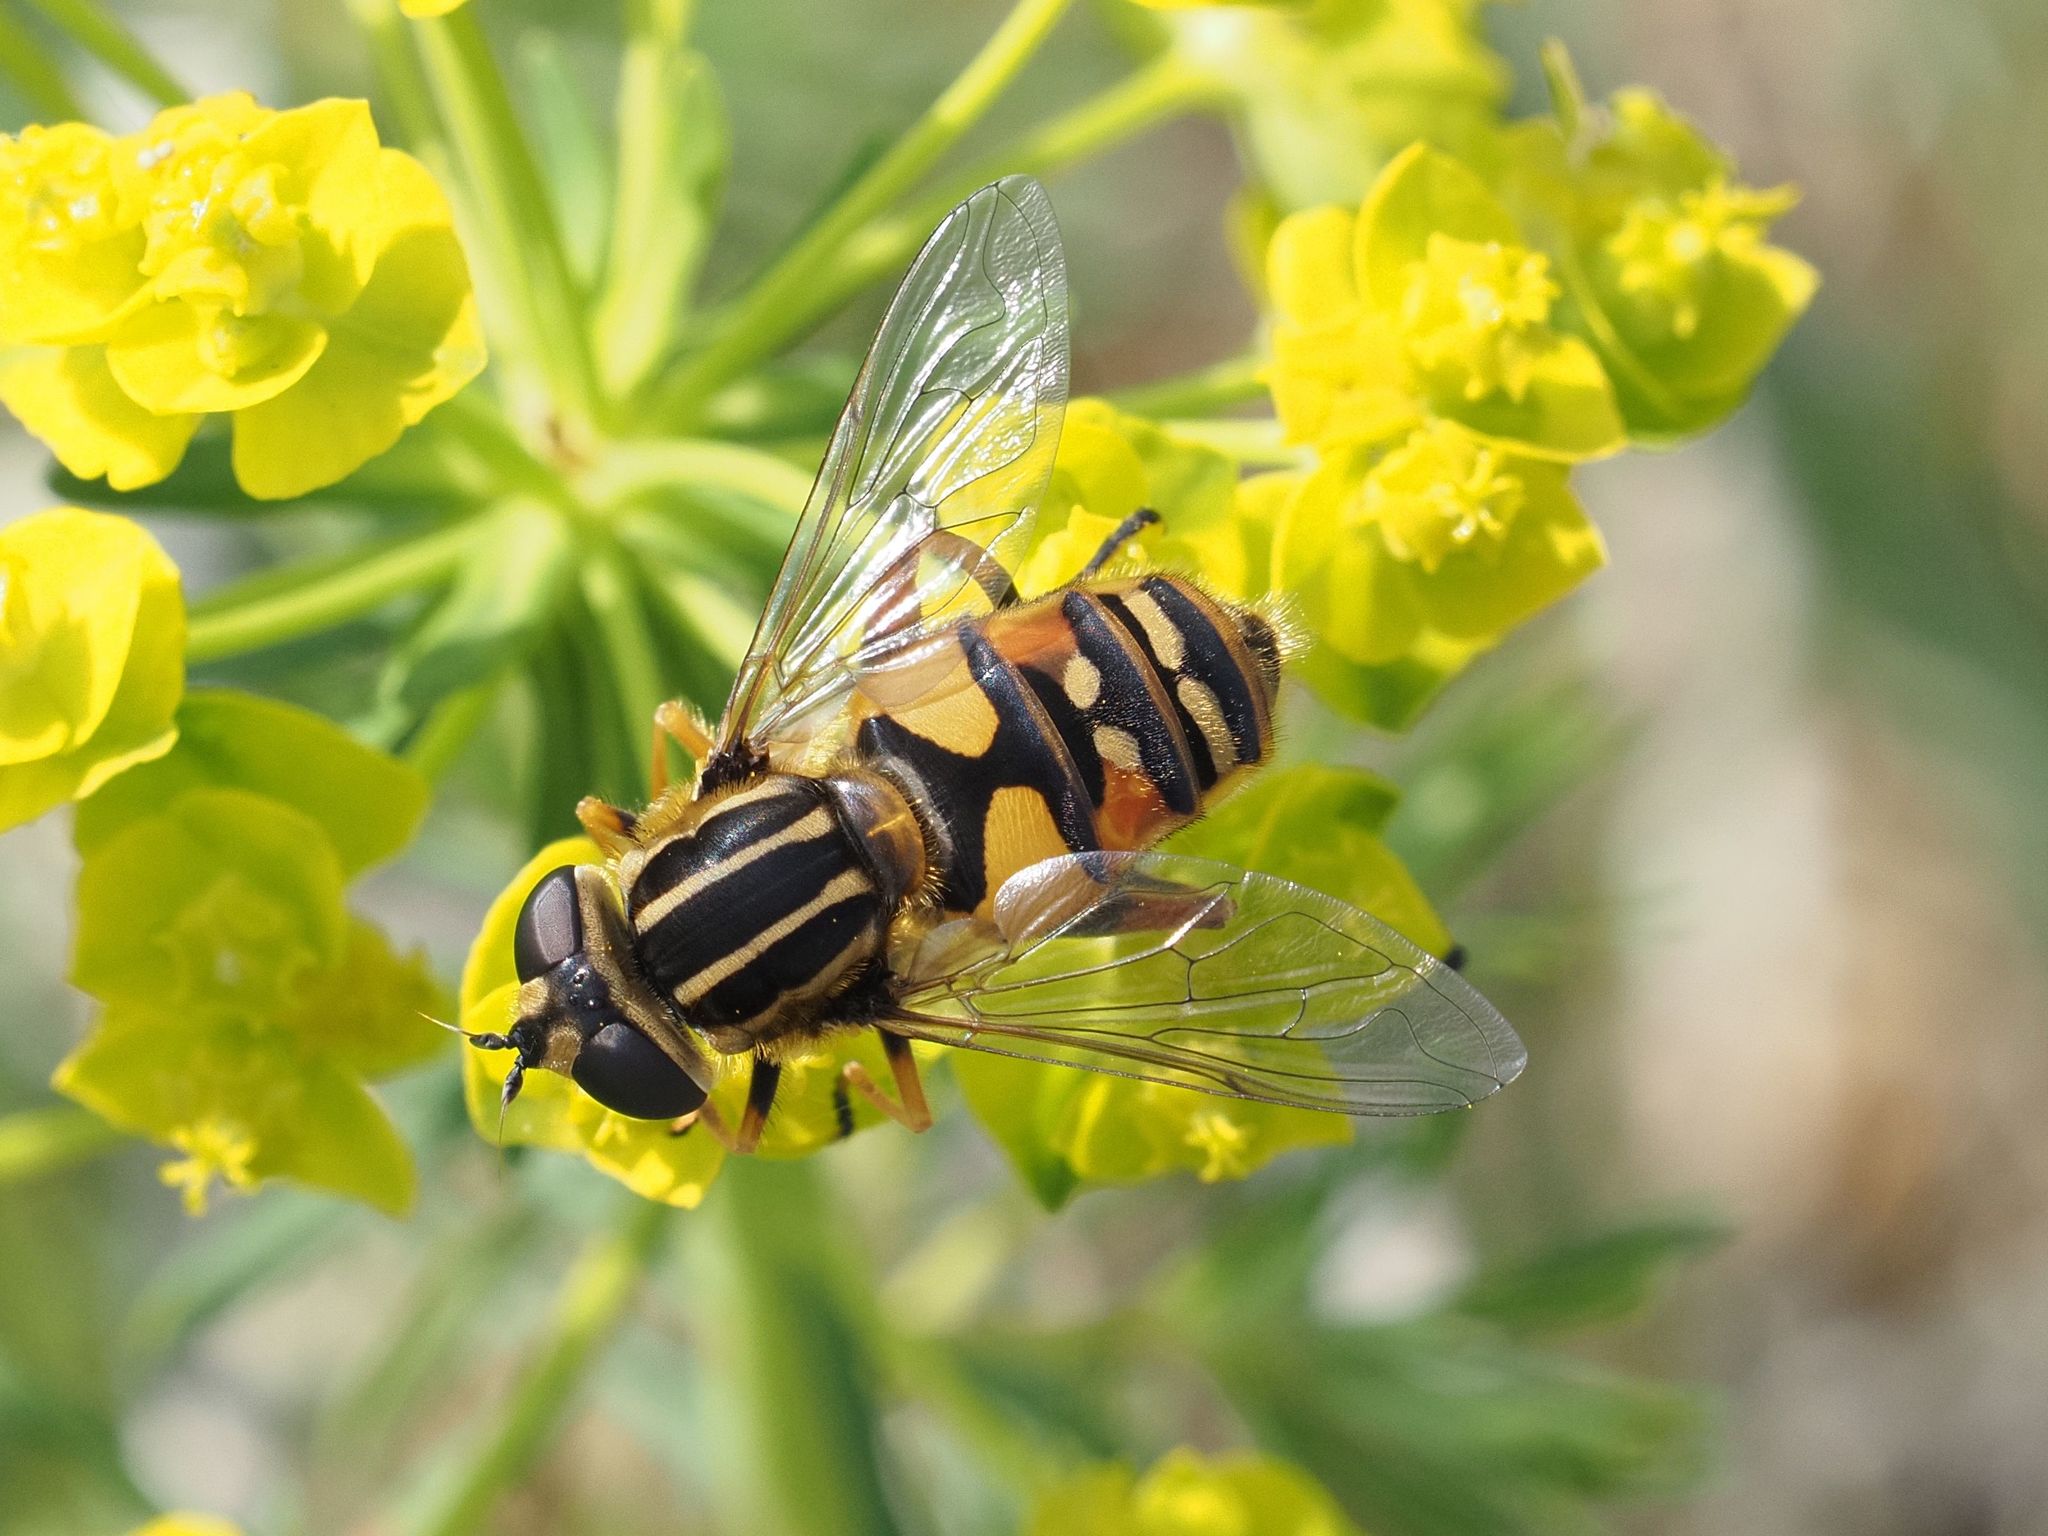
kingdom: Animalia
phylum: Arthropoda
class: Insecta
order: Diptera
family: Syrphidae
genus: Helophilus
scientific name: Helophilus pendulus
